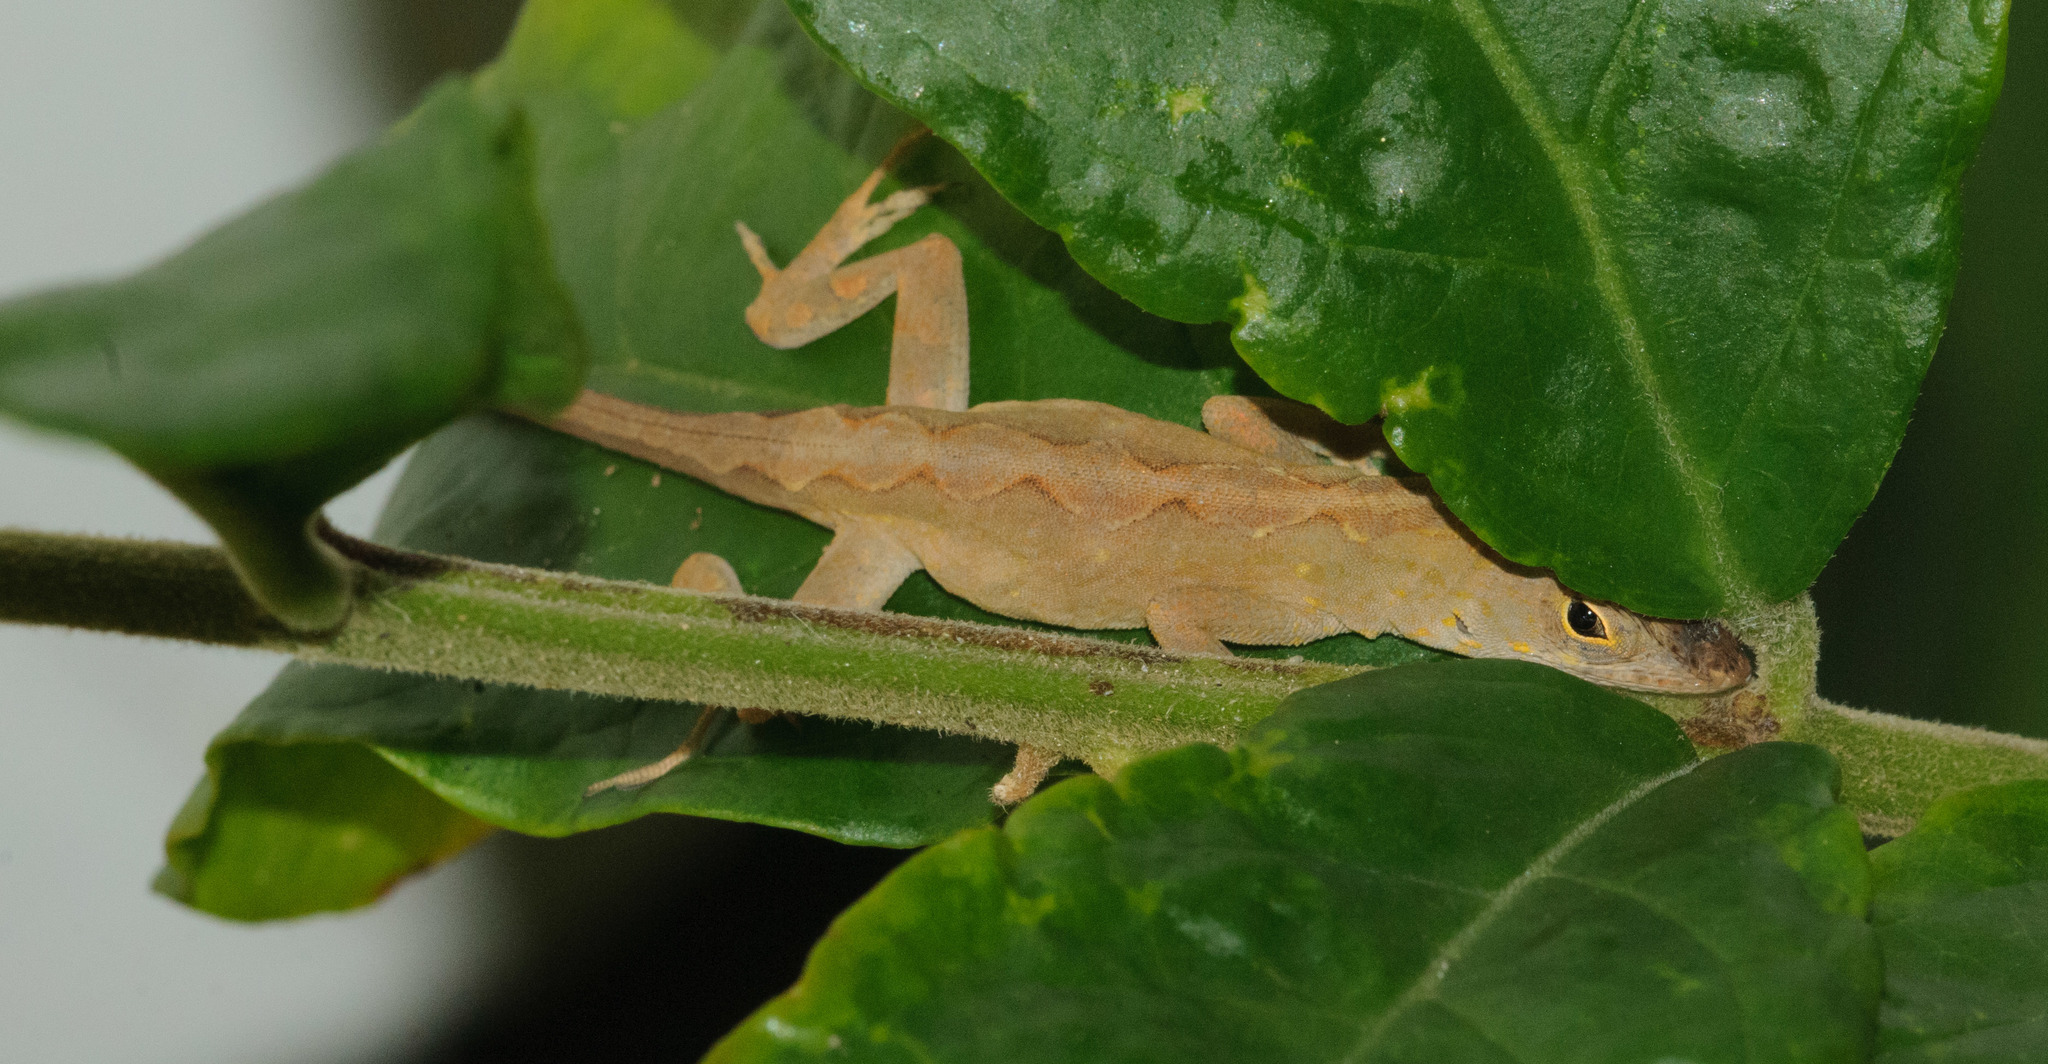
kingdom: Animalia
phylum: Chordata
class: Squamata
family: Dactyloidae
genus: Anolis
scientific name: Anolis sagrei
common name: Brown anole
